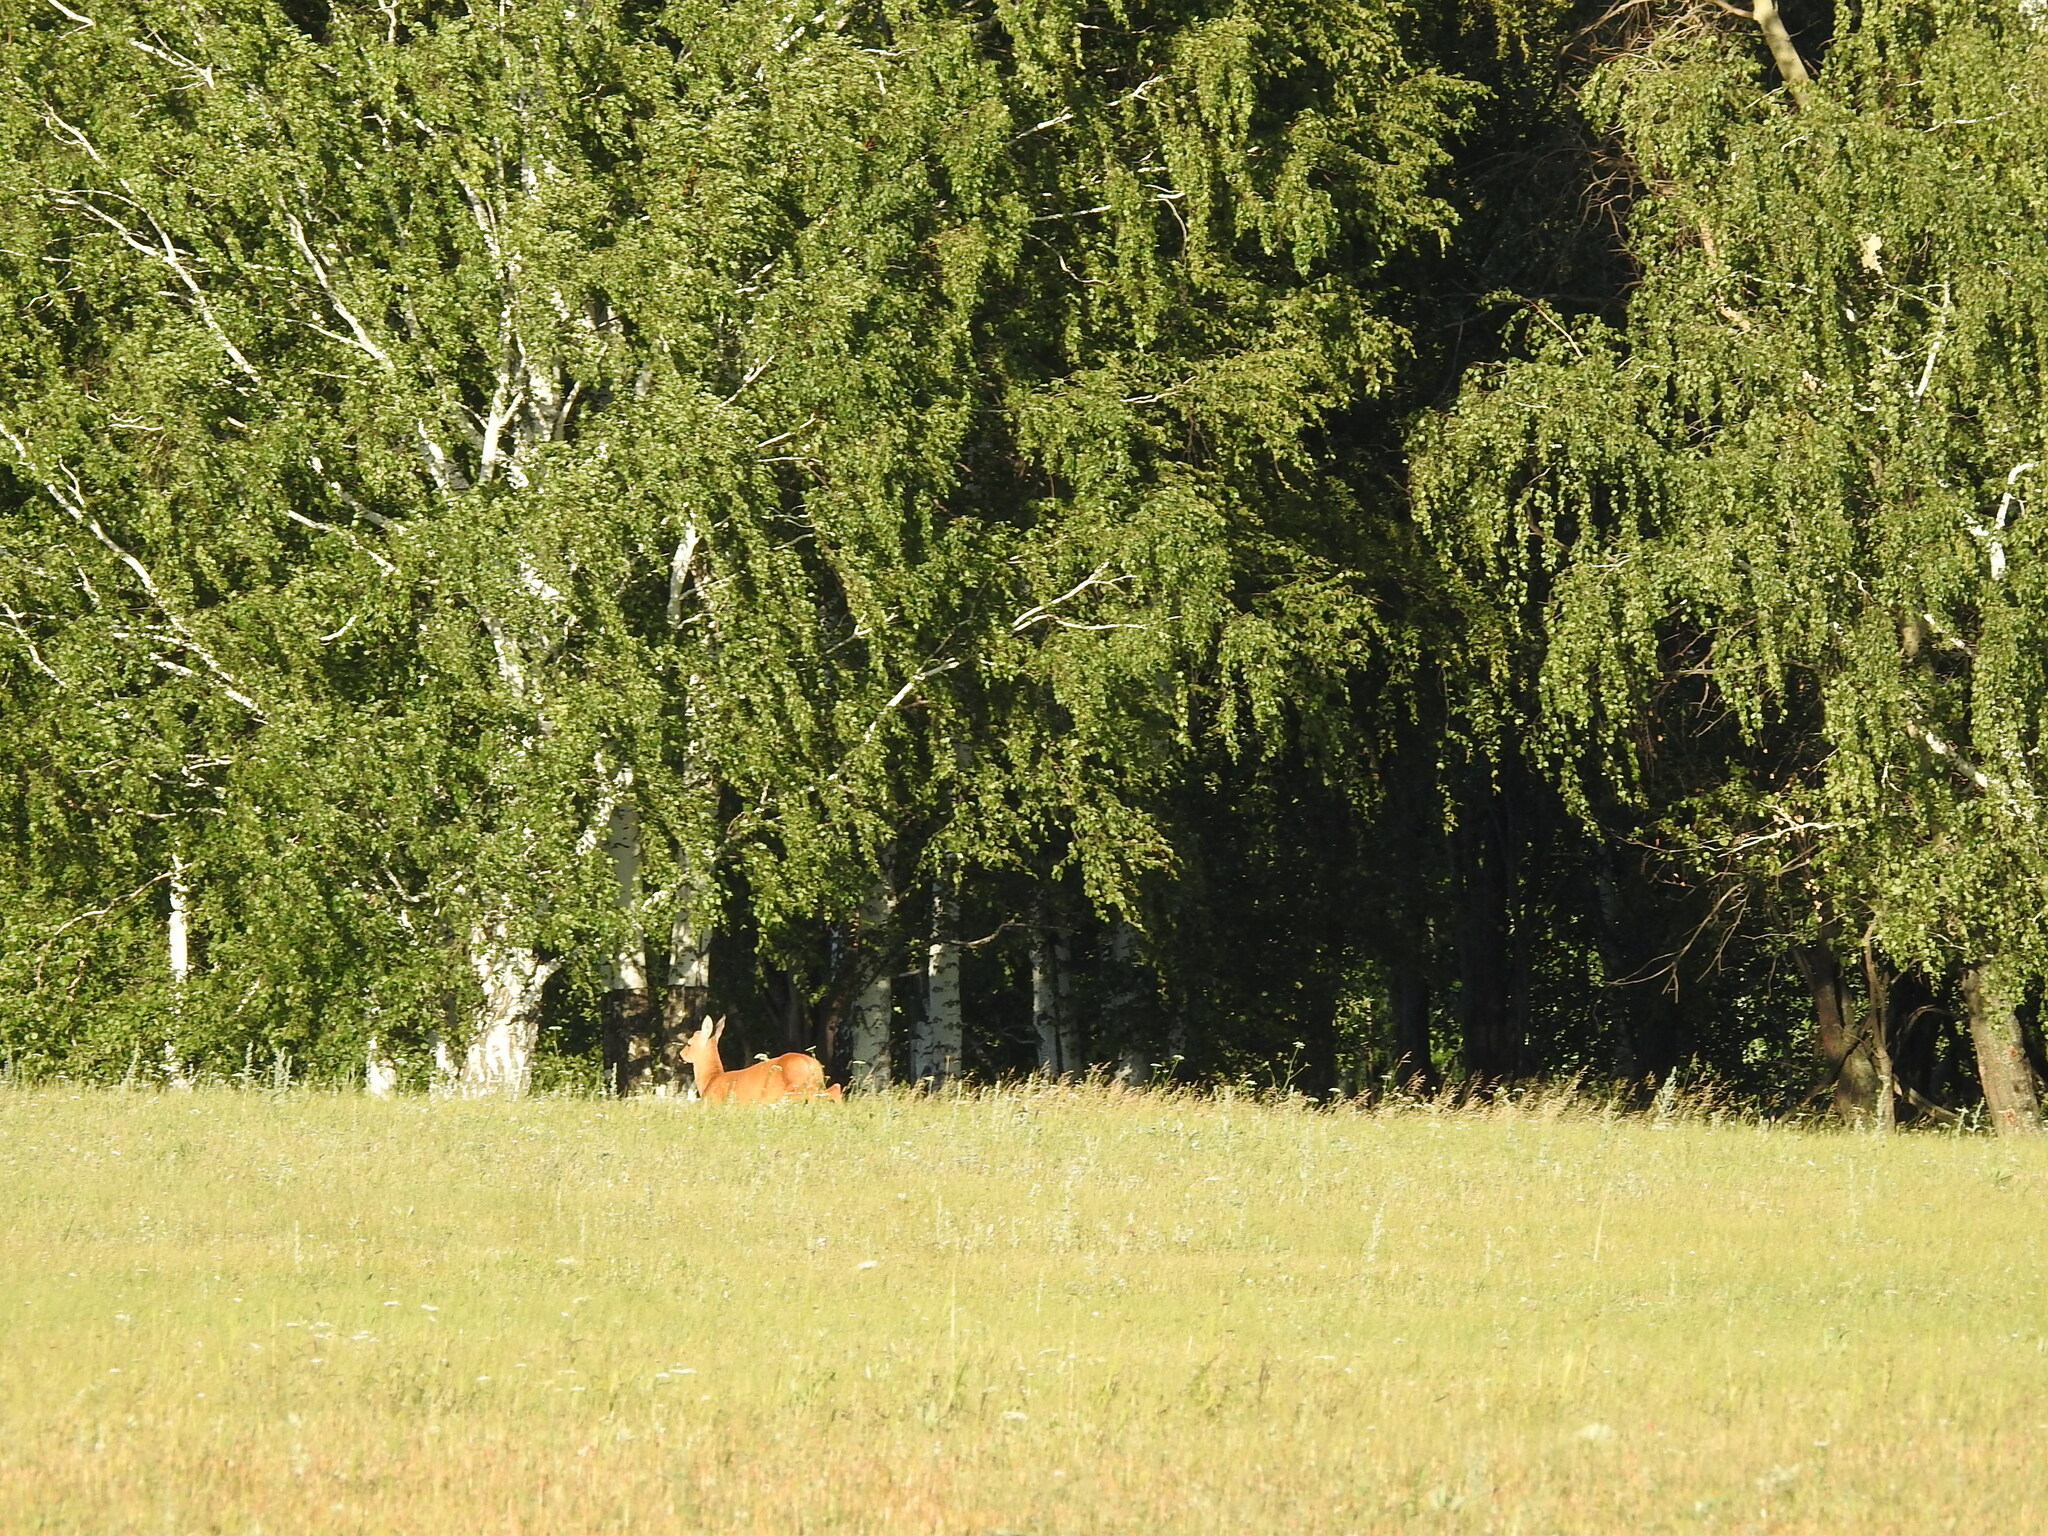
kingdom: Animalia
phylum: Chordata
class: Mammalia
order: Artiodactyla
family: Cervidae
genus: Capreolus
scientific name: Capreolus pygargus
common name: Siberian roe
